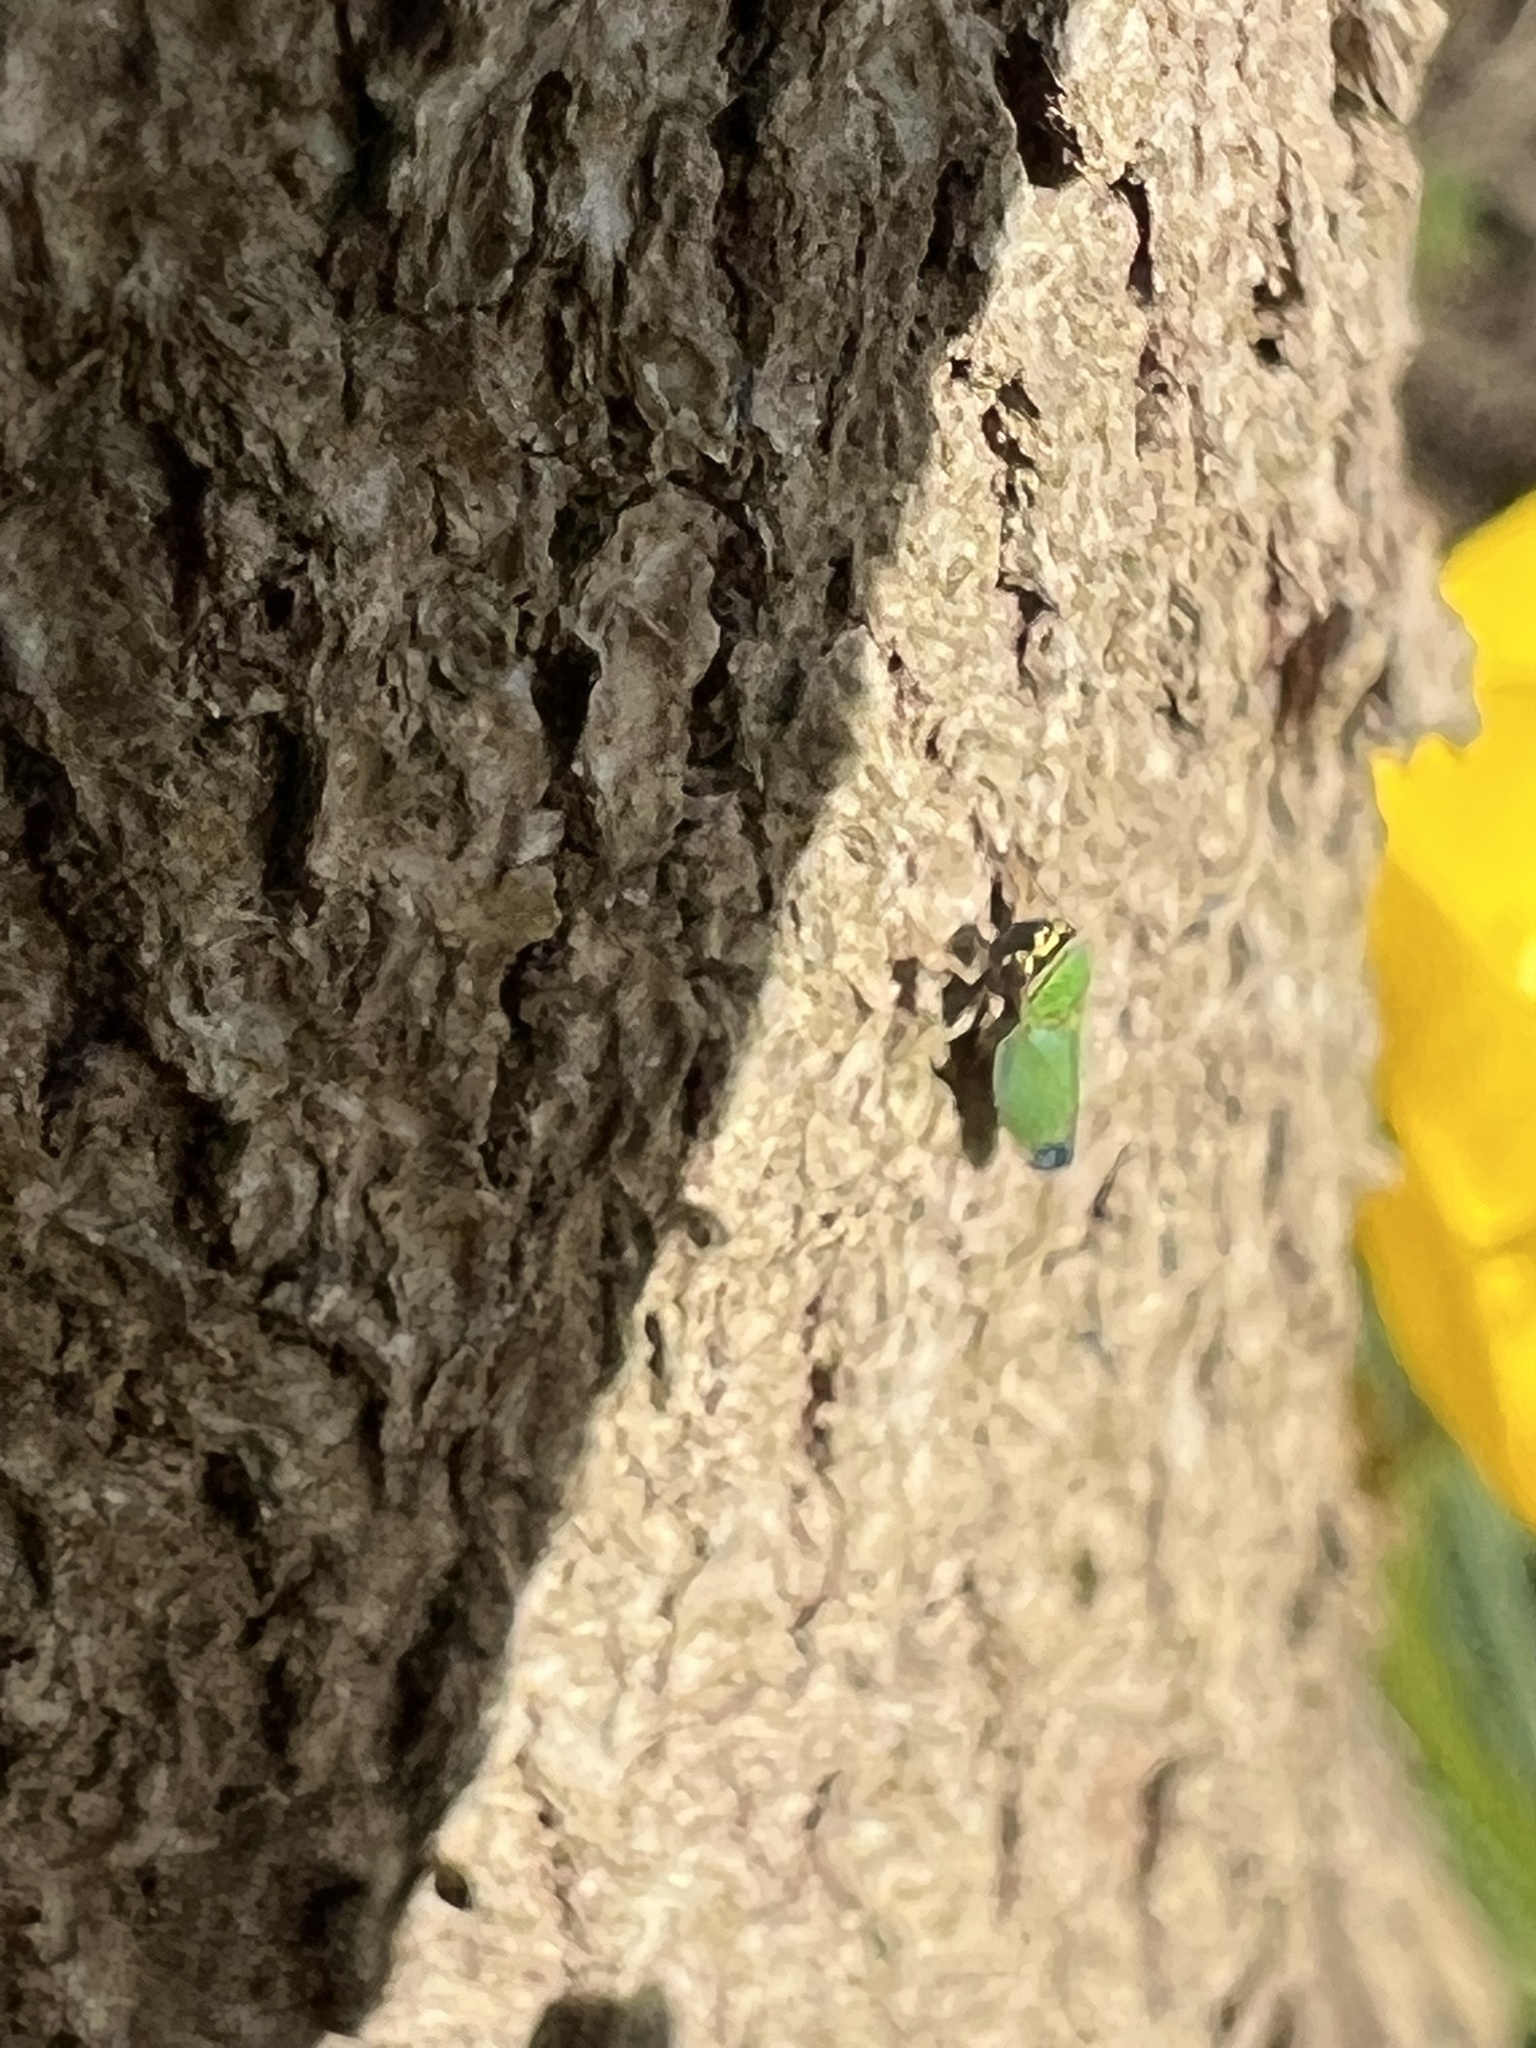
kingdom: Animalia
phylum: Arthropoda
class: Insecta
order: Hemiptera
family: Cicadellidae
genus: Tylozygus
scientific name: Tylozygus geometricus
